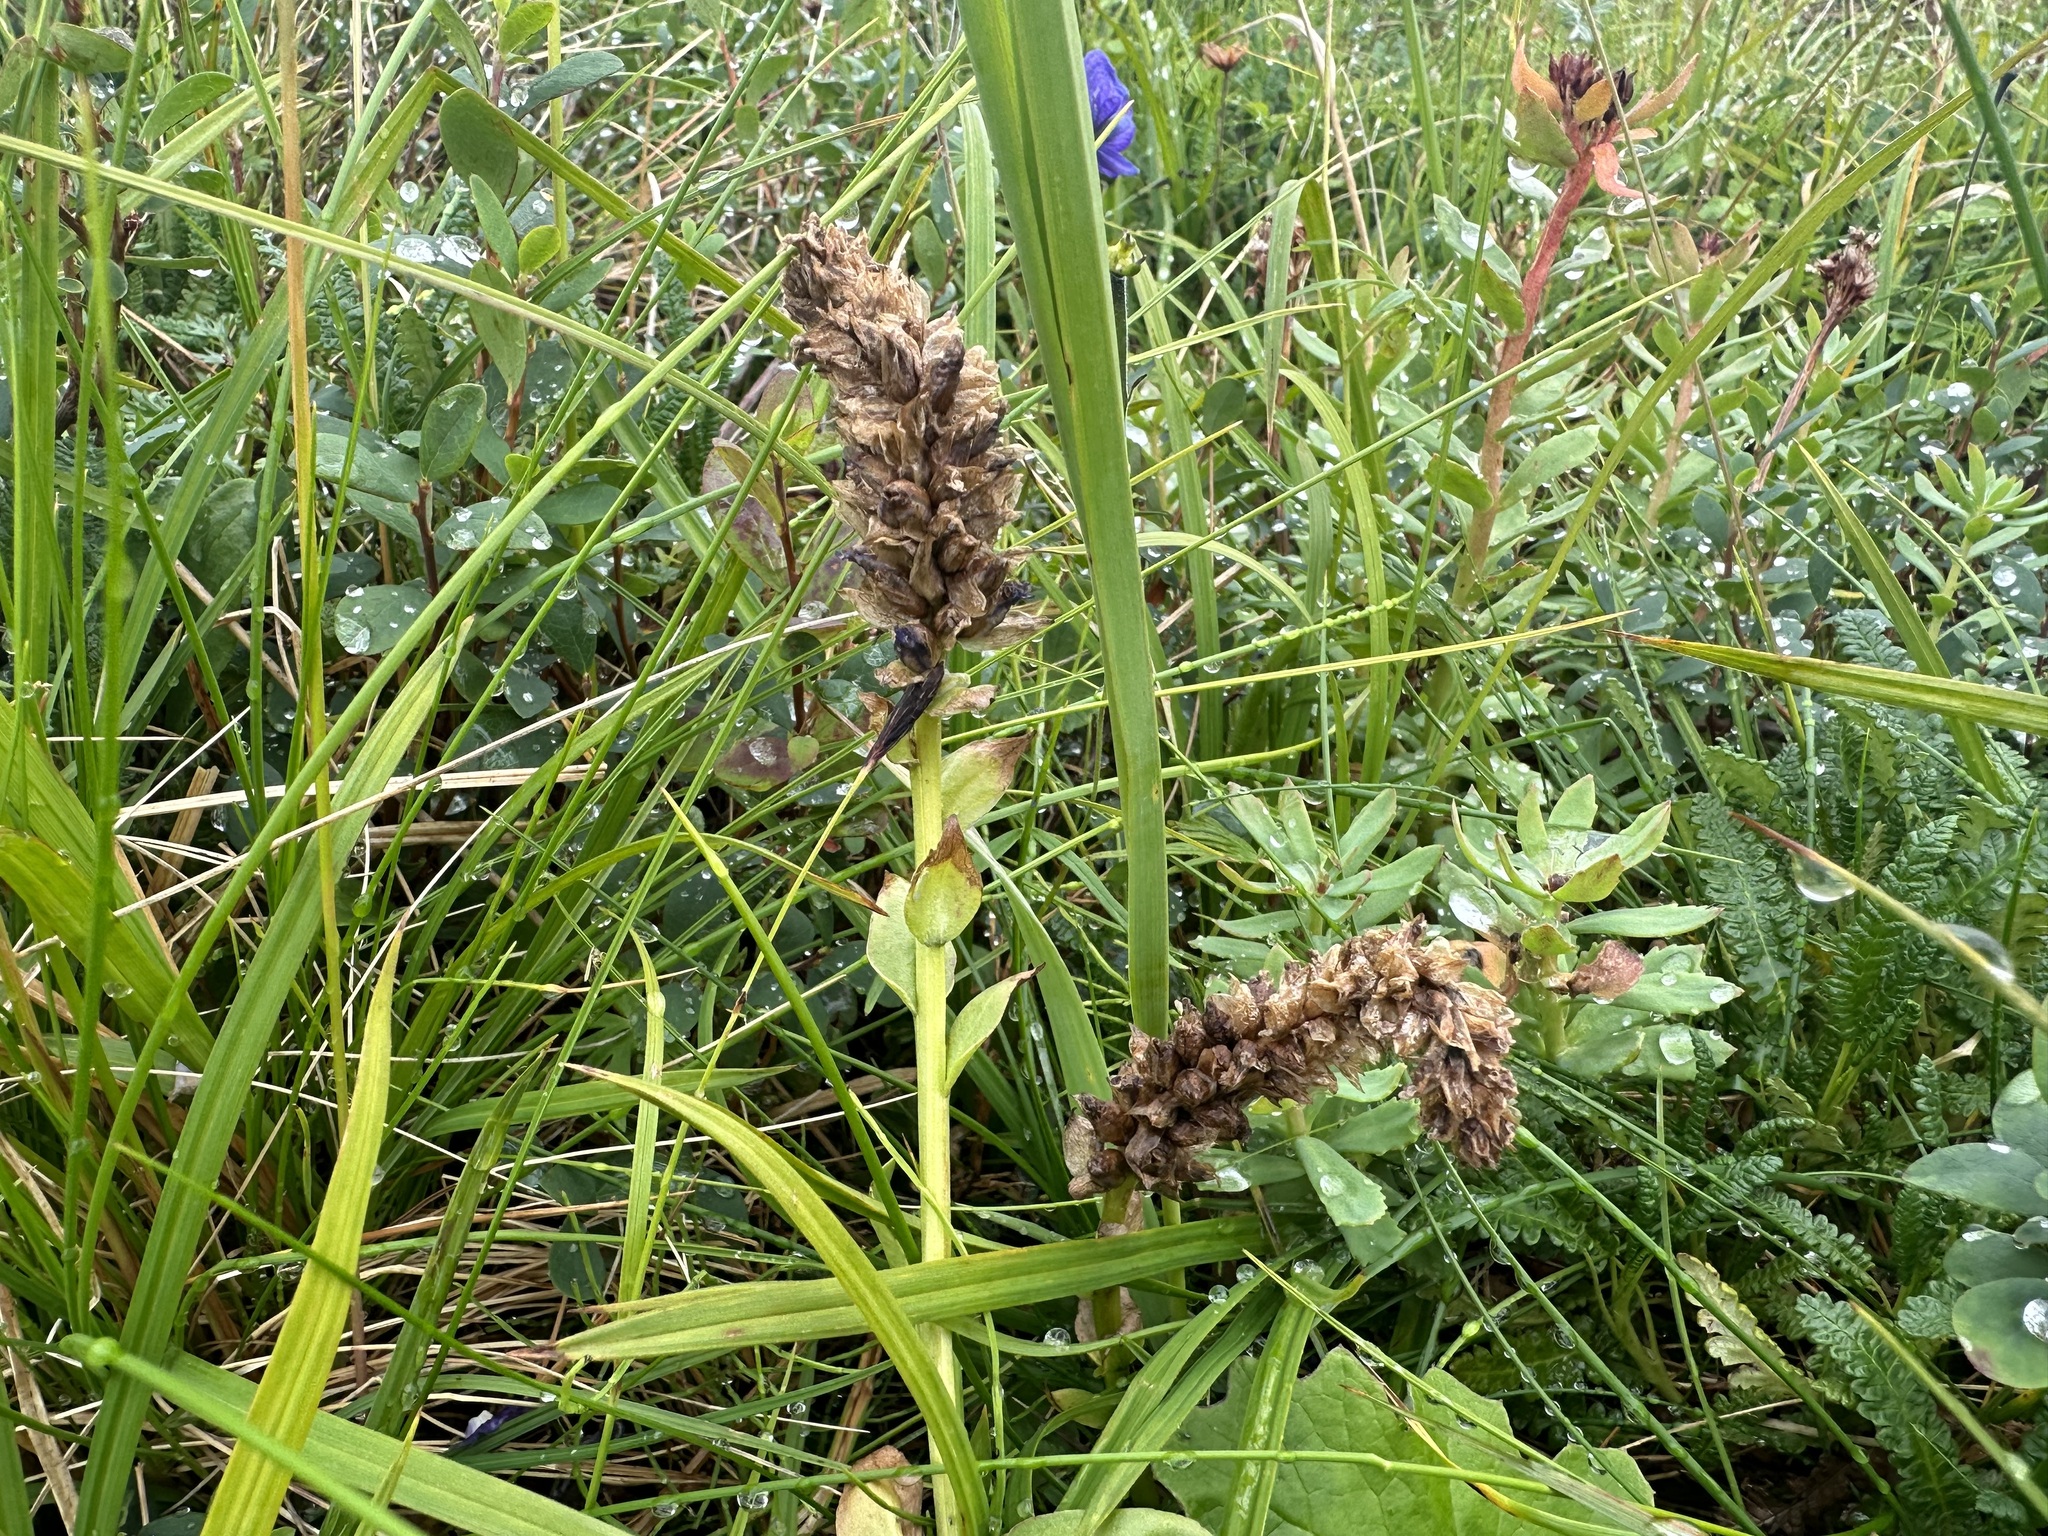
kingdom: Plantae
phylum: Tracheophyta
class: Magnoliopsida
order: Lamiales
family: Plantaginaceae
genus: Lagotis
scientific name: Lagotis glauca
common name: Glaucous weaselsnout
